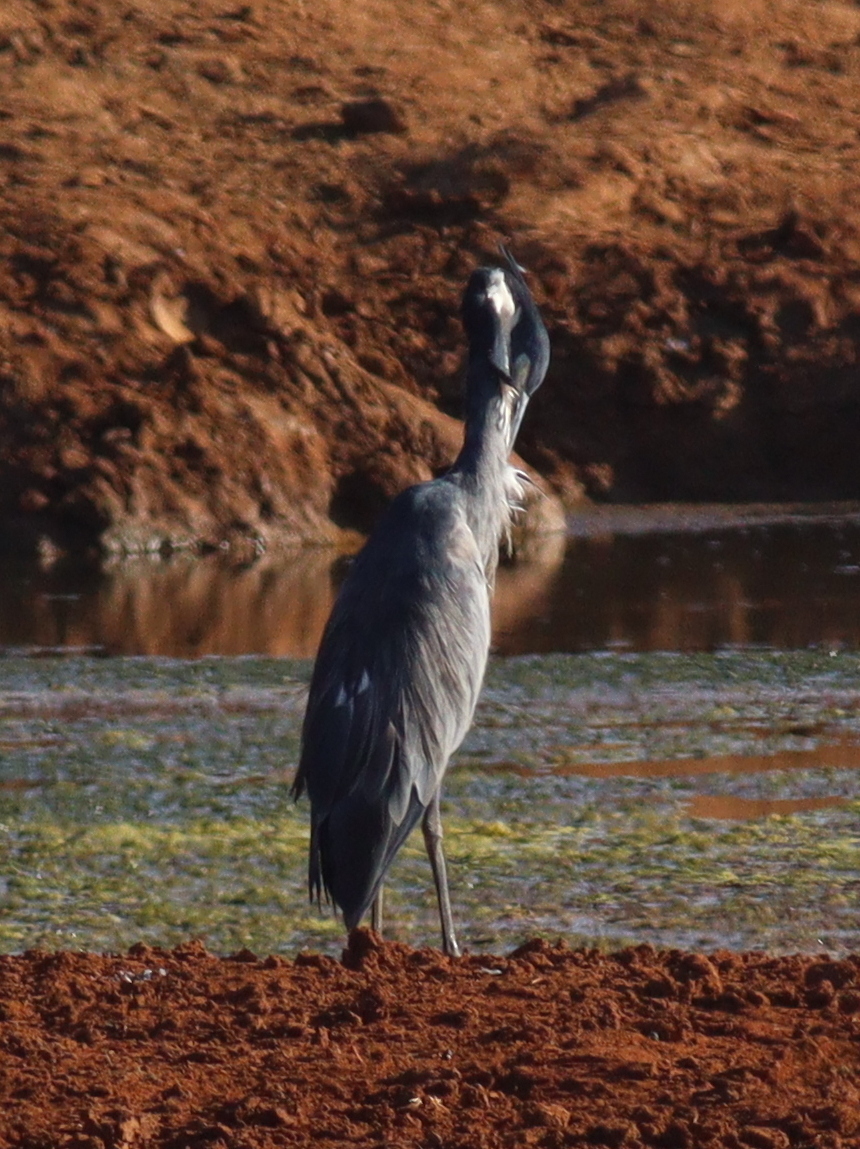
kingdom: Animalia
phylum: Chordata
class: Aves
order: Pelecaniformes
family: Ardeidae
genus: Ardea
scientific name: Ardea melanocephala
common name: Black-headed heron
